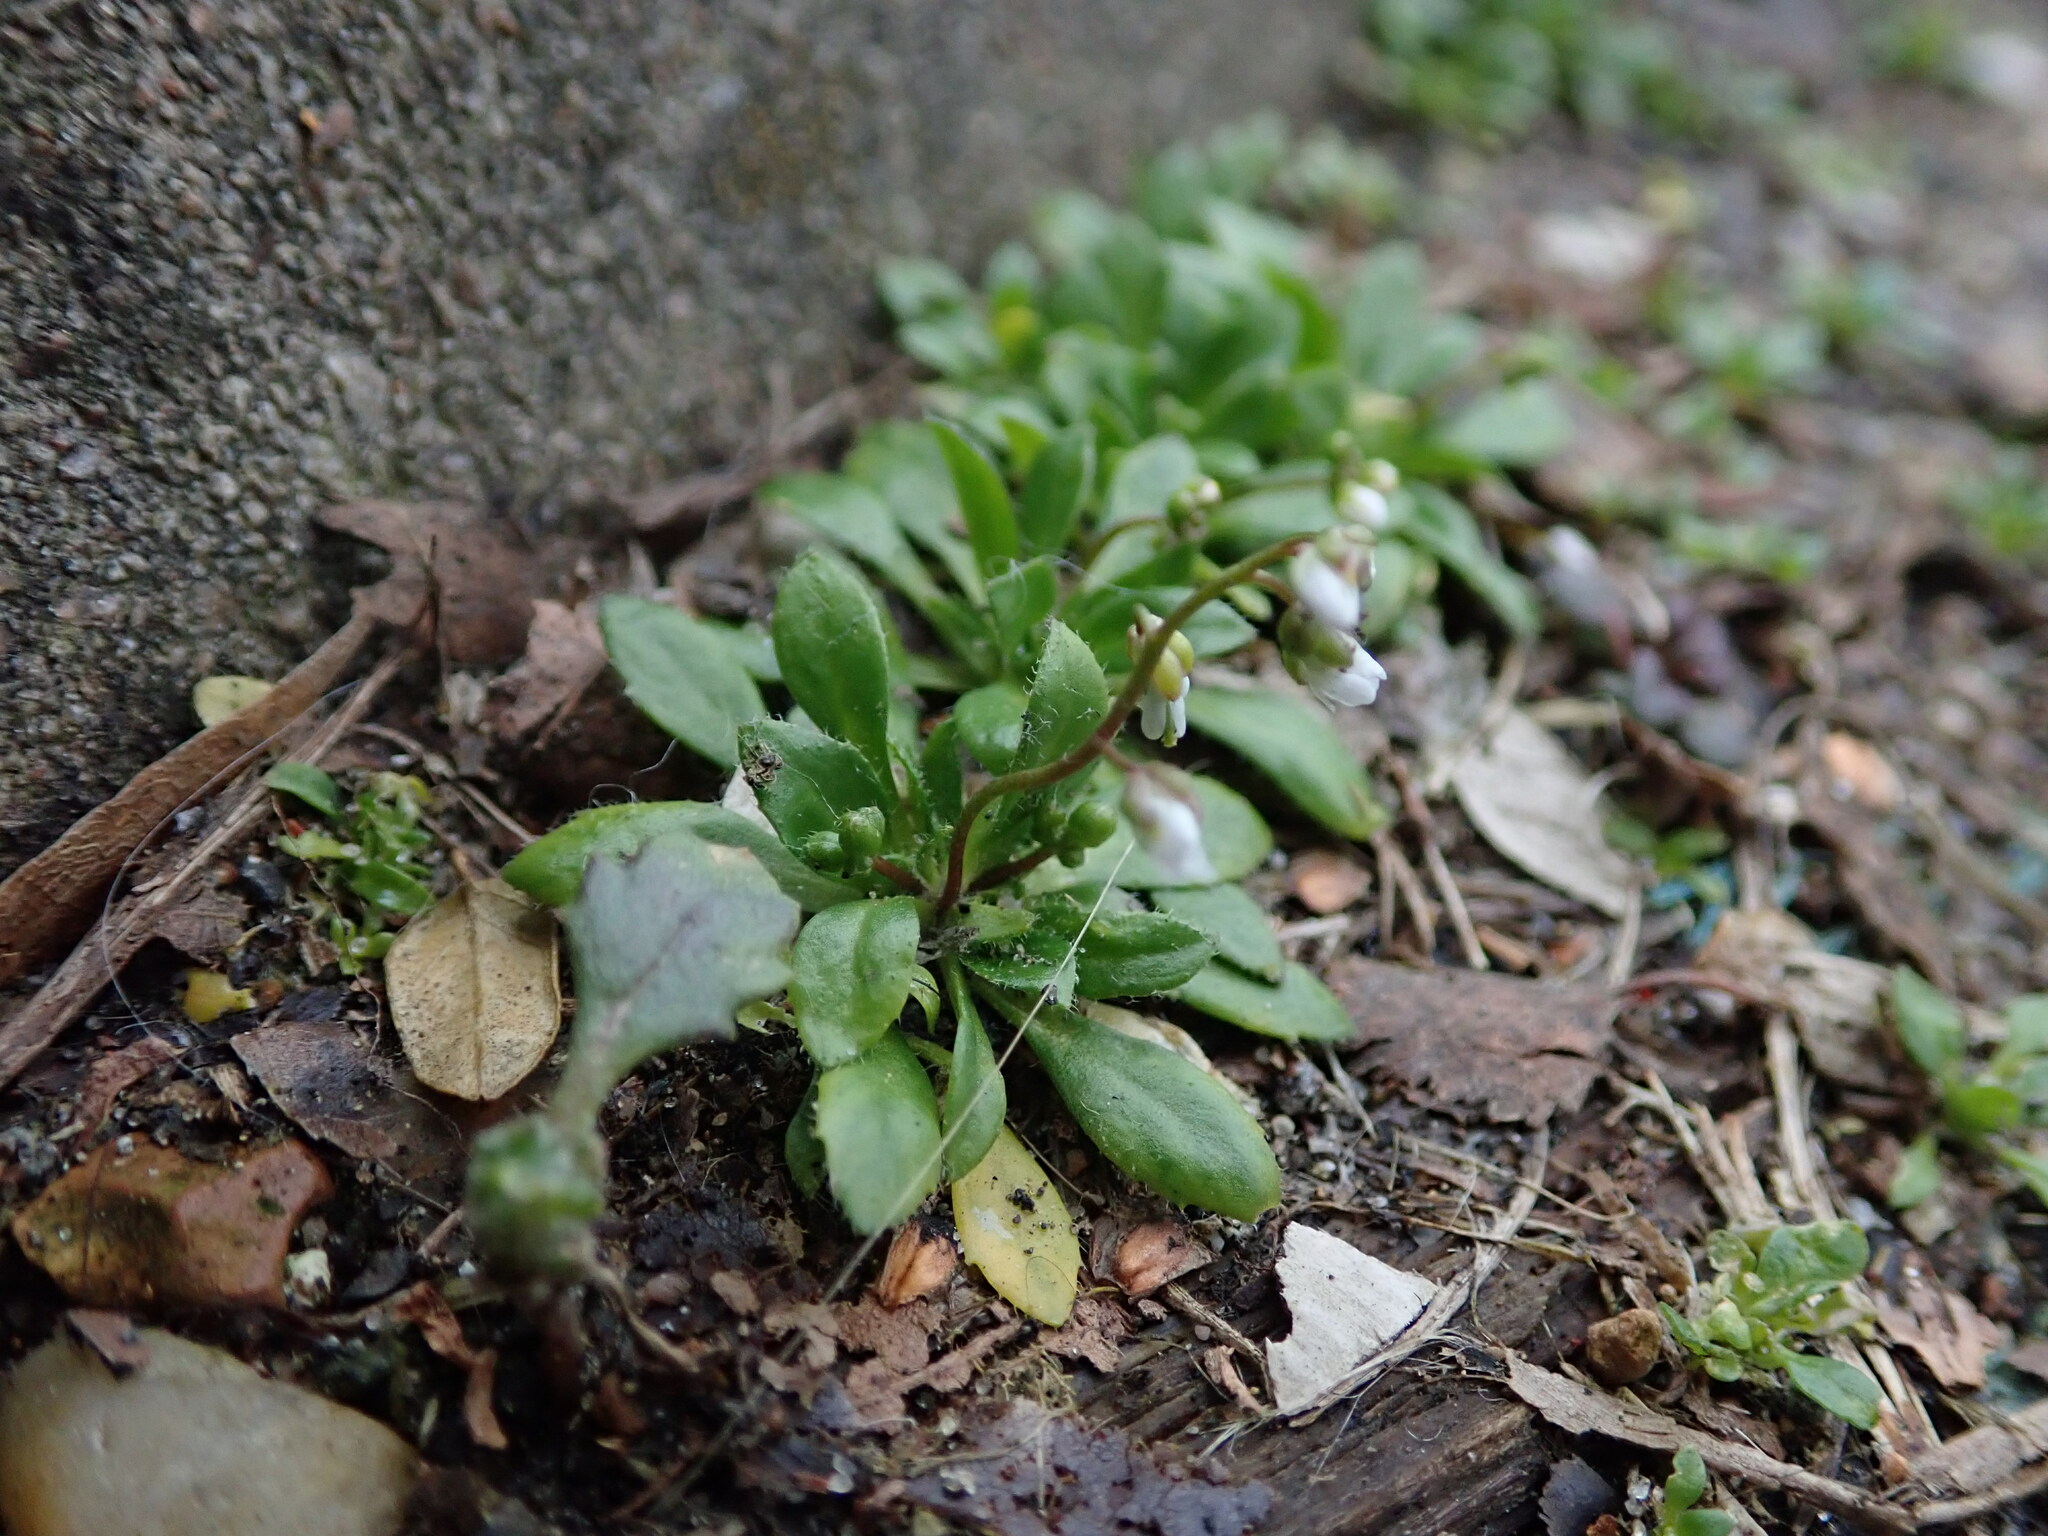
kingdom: Plantae
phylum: Tracheophyta
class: Magnoliopsida
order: Brassicales
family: Brassicaceae
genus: Draba
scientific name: Draba verna
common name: Spring draba
